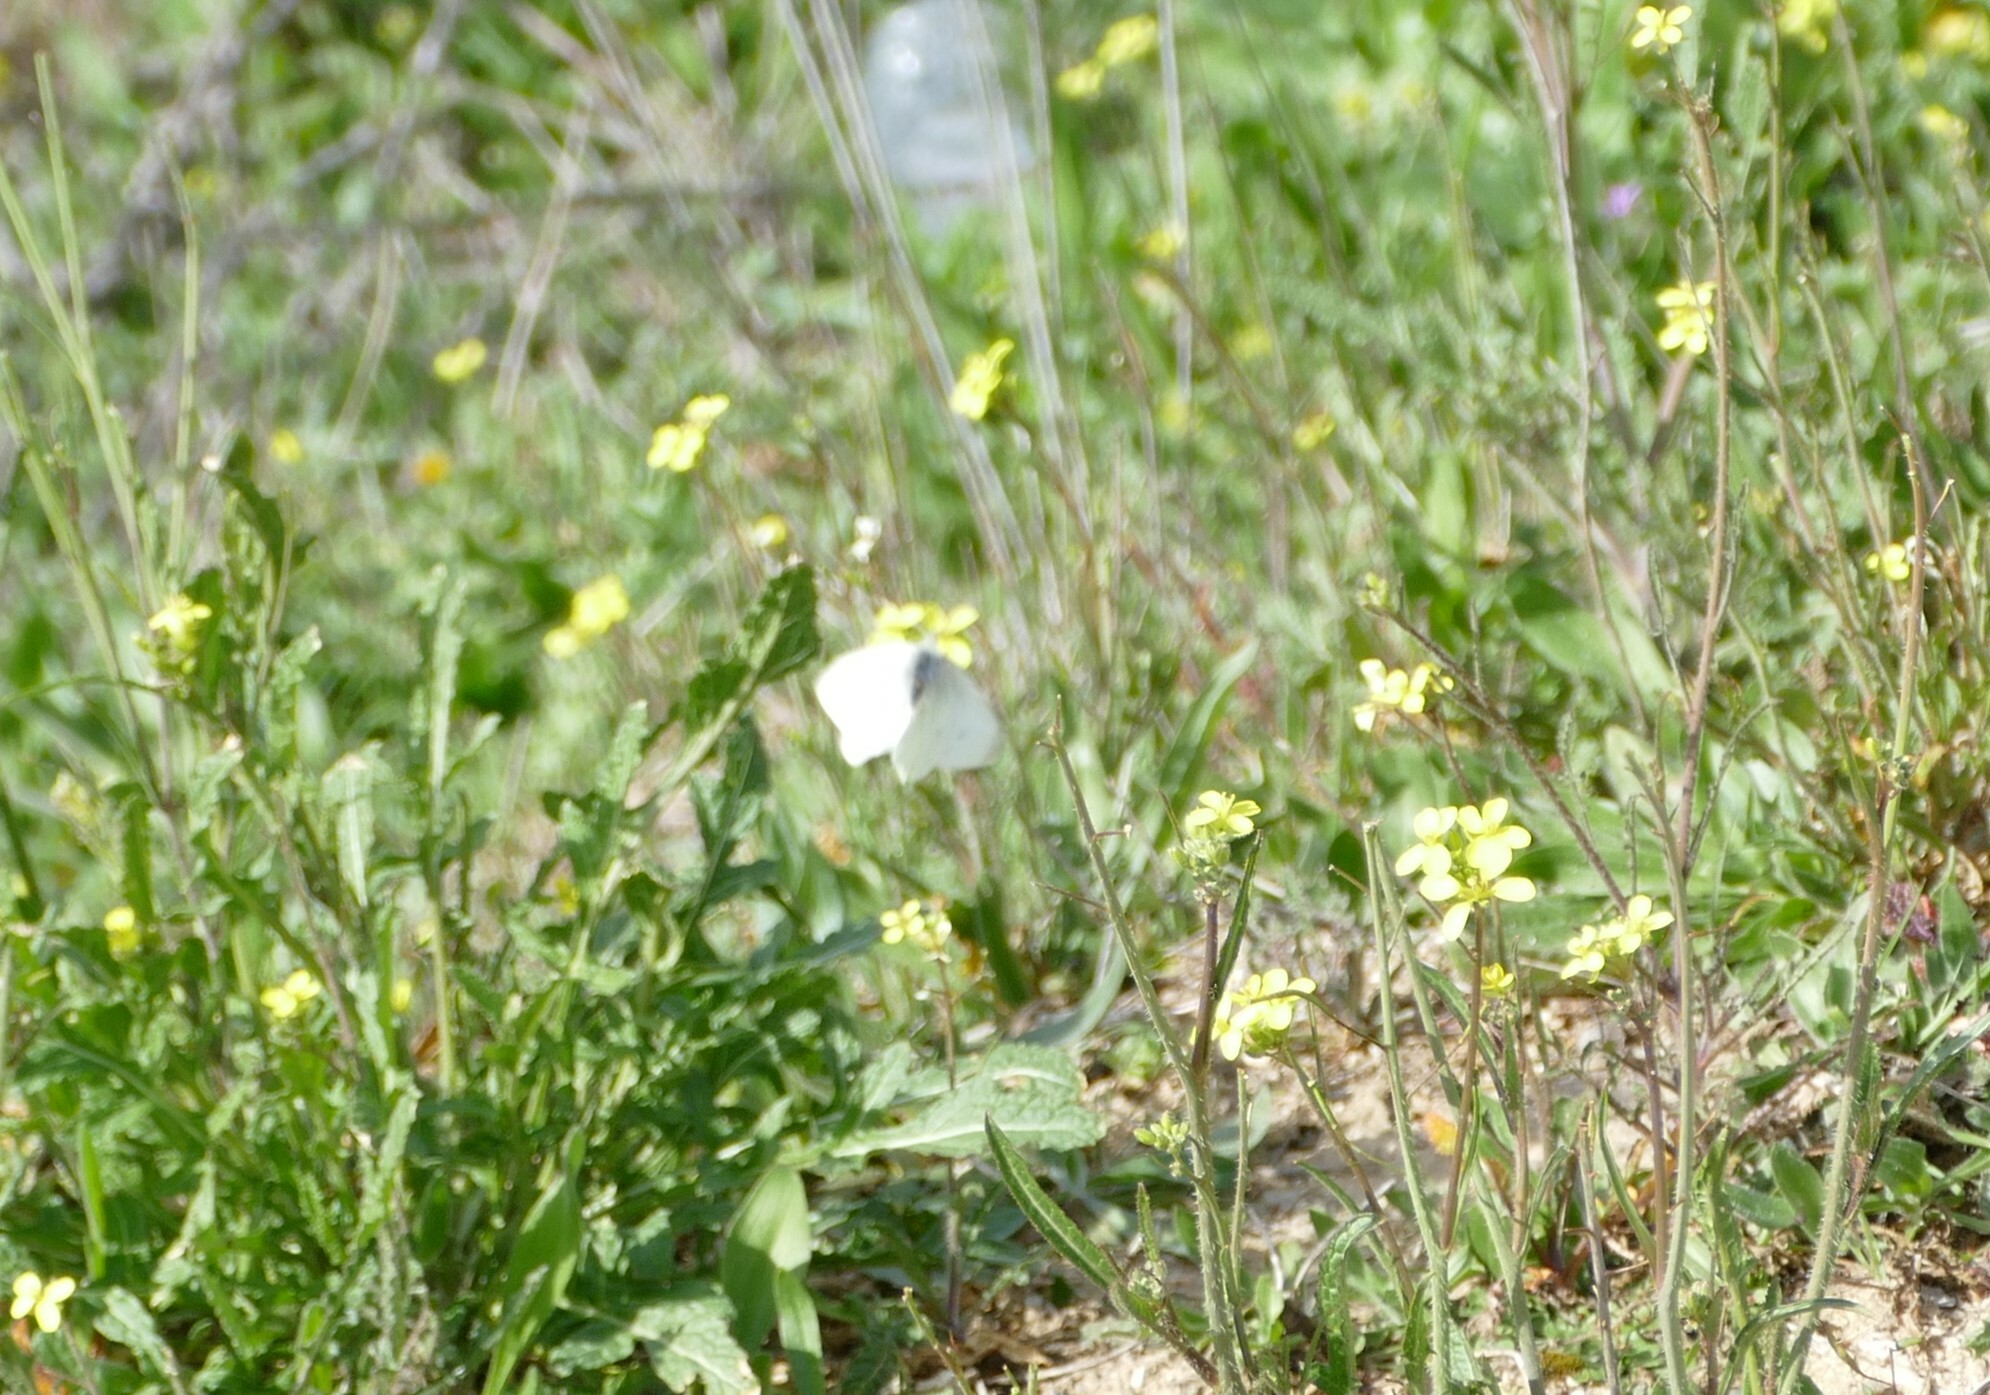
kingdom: Animalia
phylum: Arthropoda
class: Insecta
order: Lepidoptera
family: Pieridae
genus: Pieris
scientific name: Pieris rapae
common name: Small white
